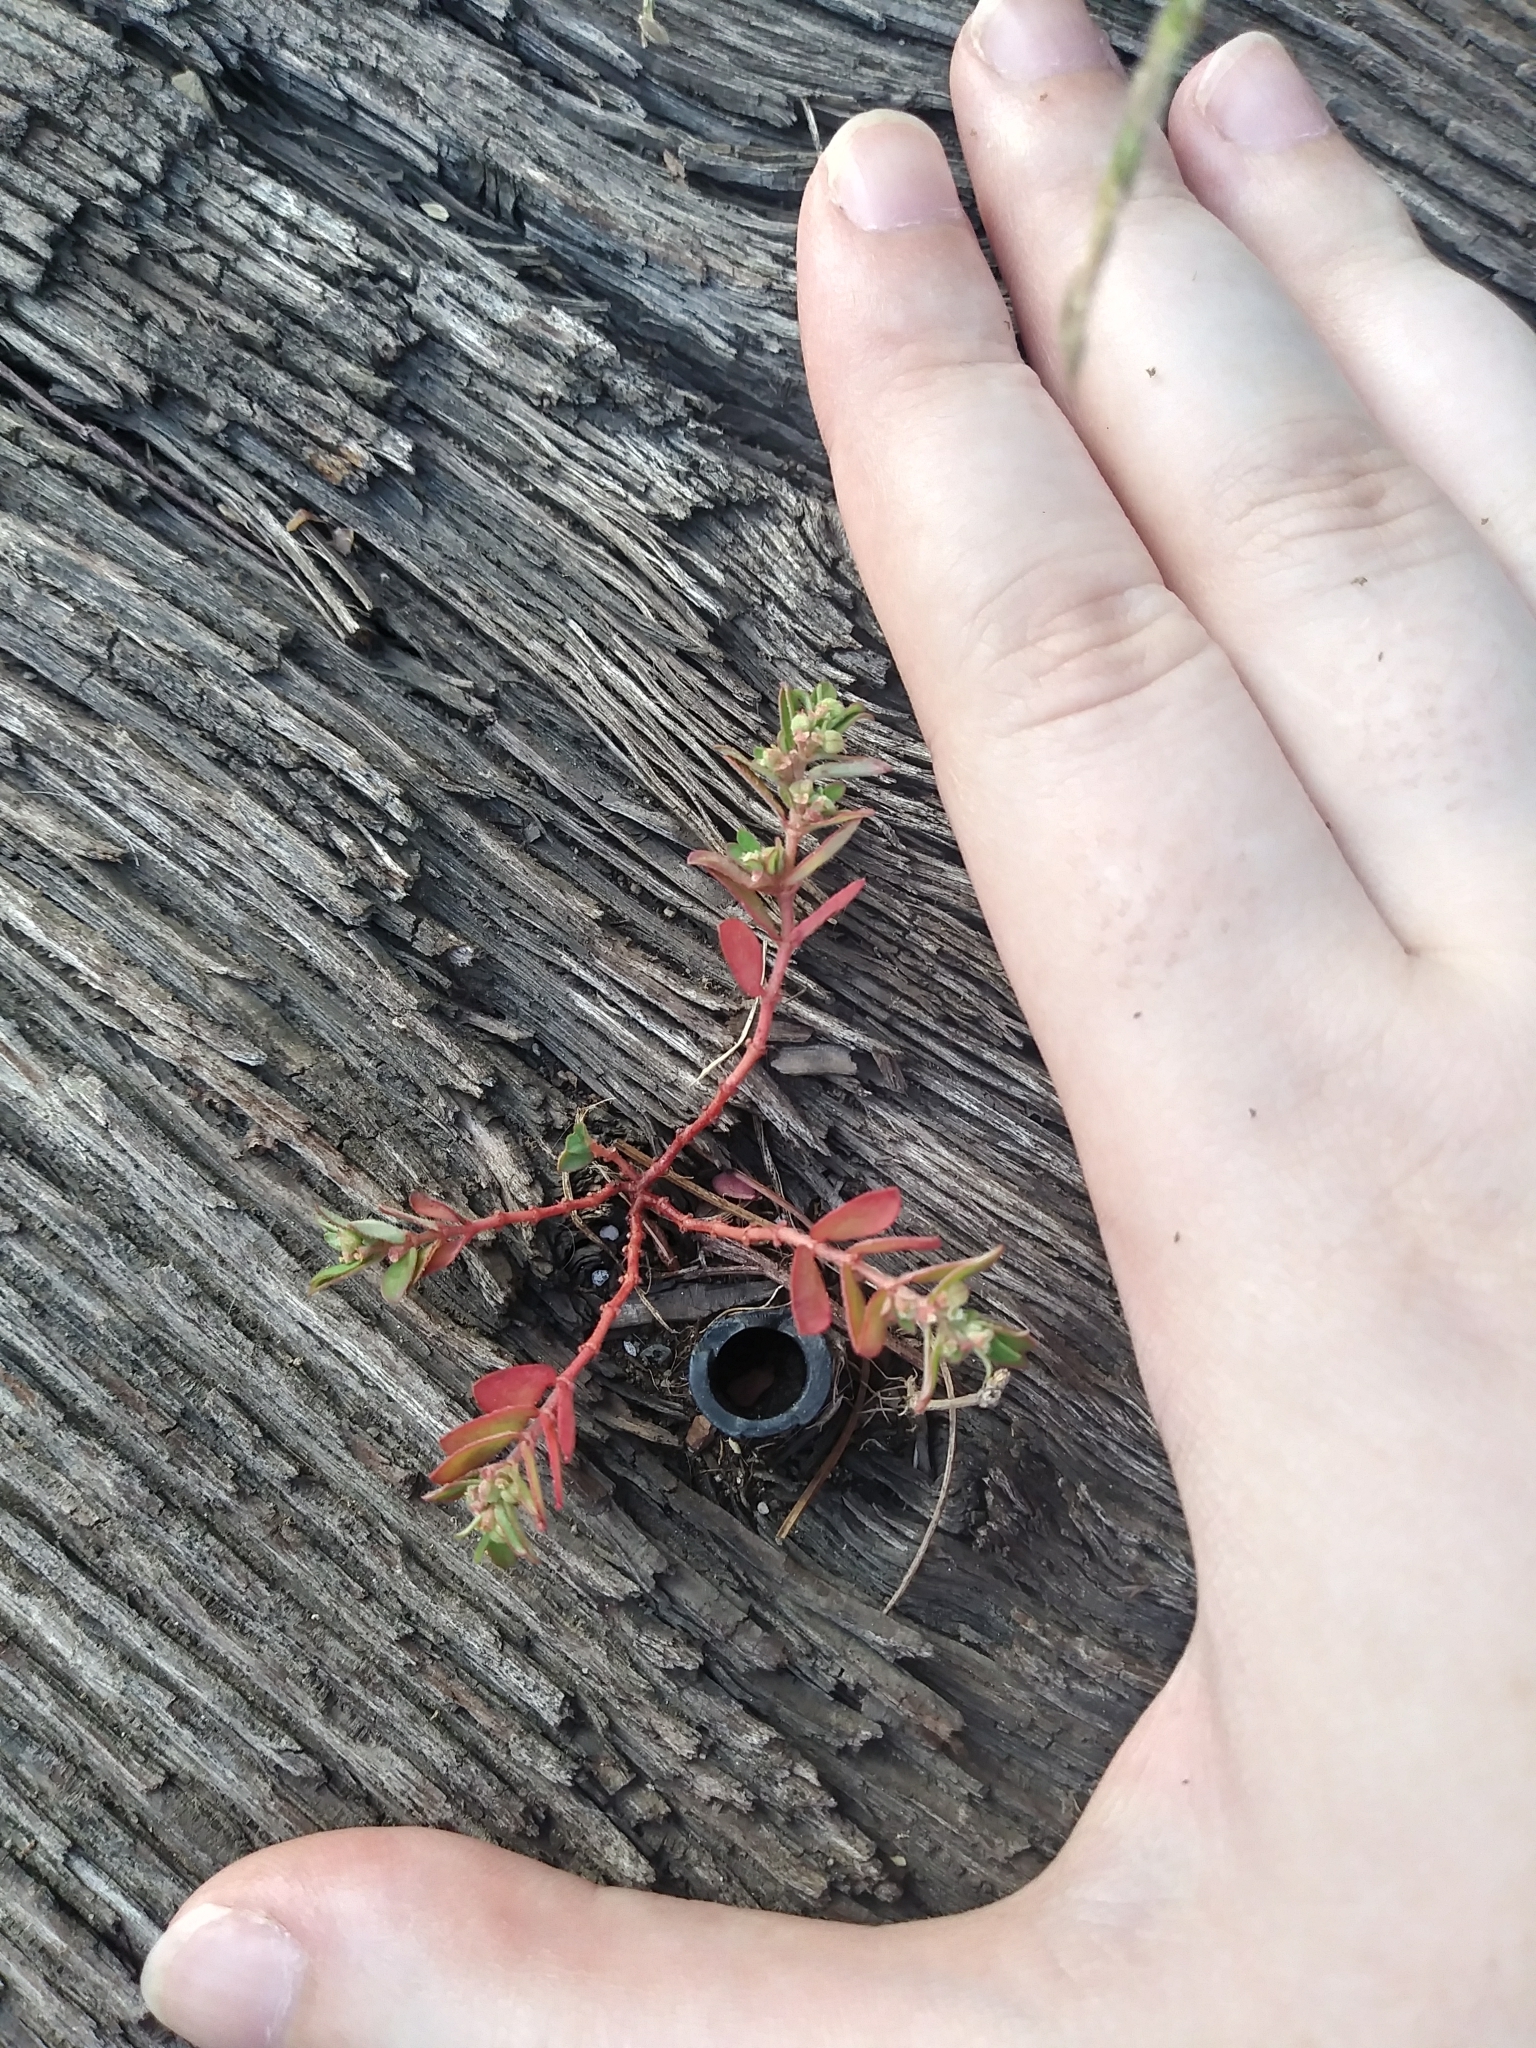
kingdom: Plantae
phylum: Tracheophyta
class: Magnoliopsida
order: Malpighiales
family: Euphorbiaceae
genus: Euphorbia
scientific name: Euphorbia maculata
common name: Spotted spurge
